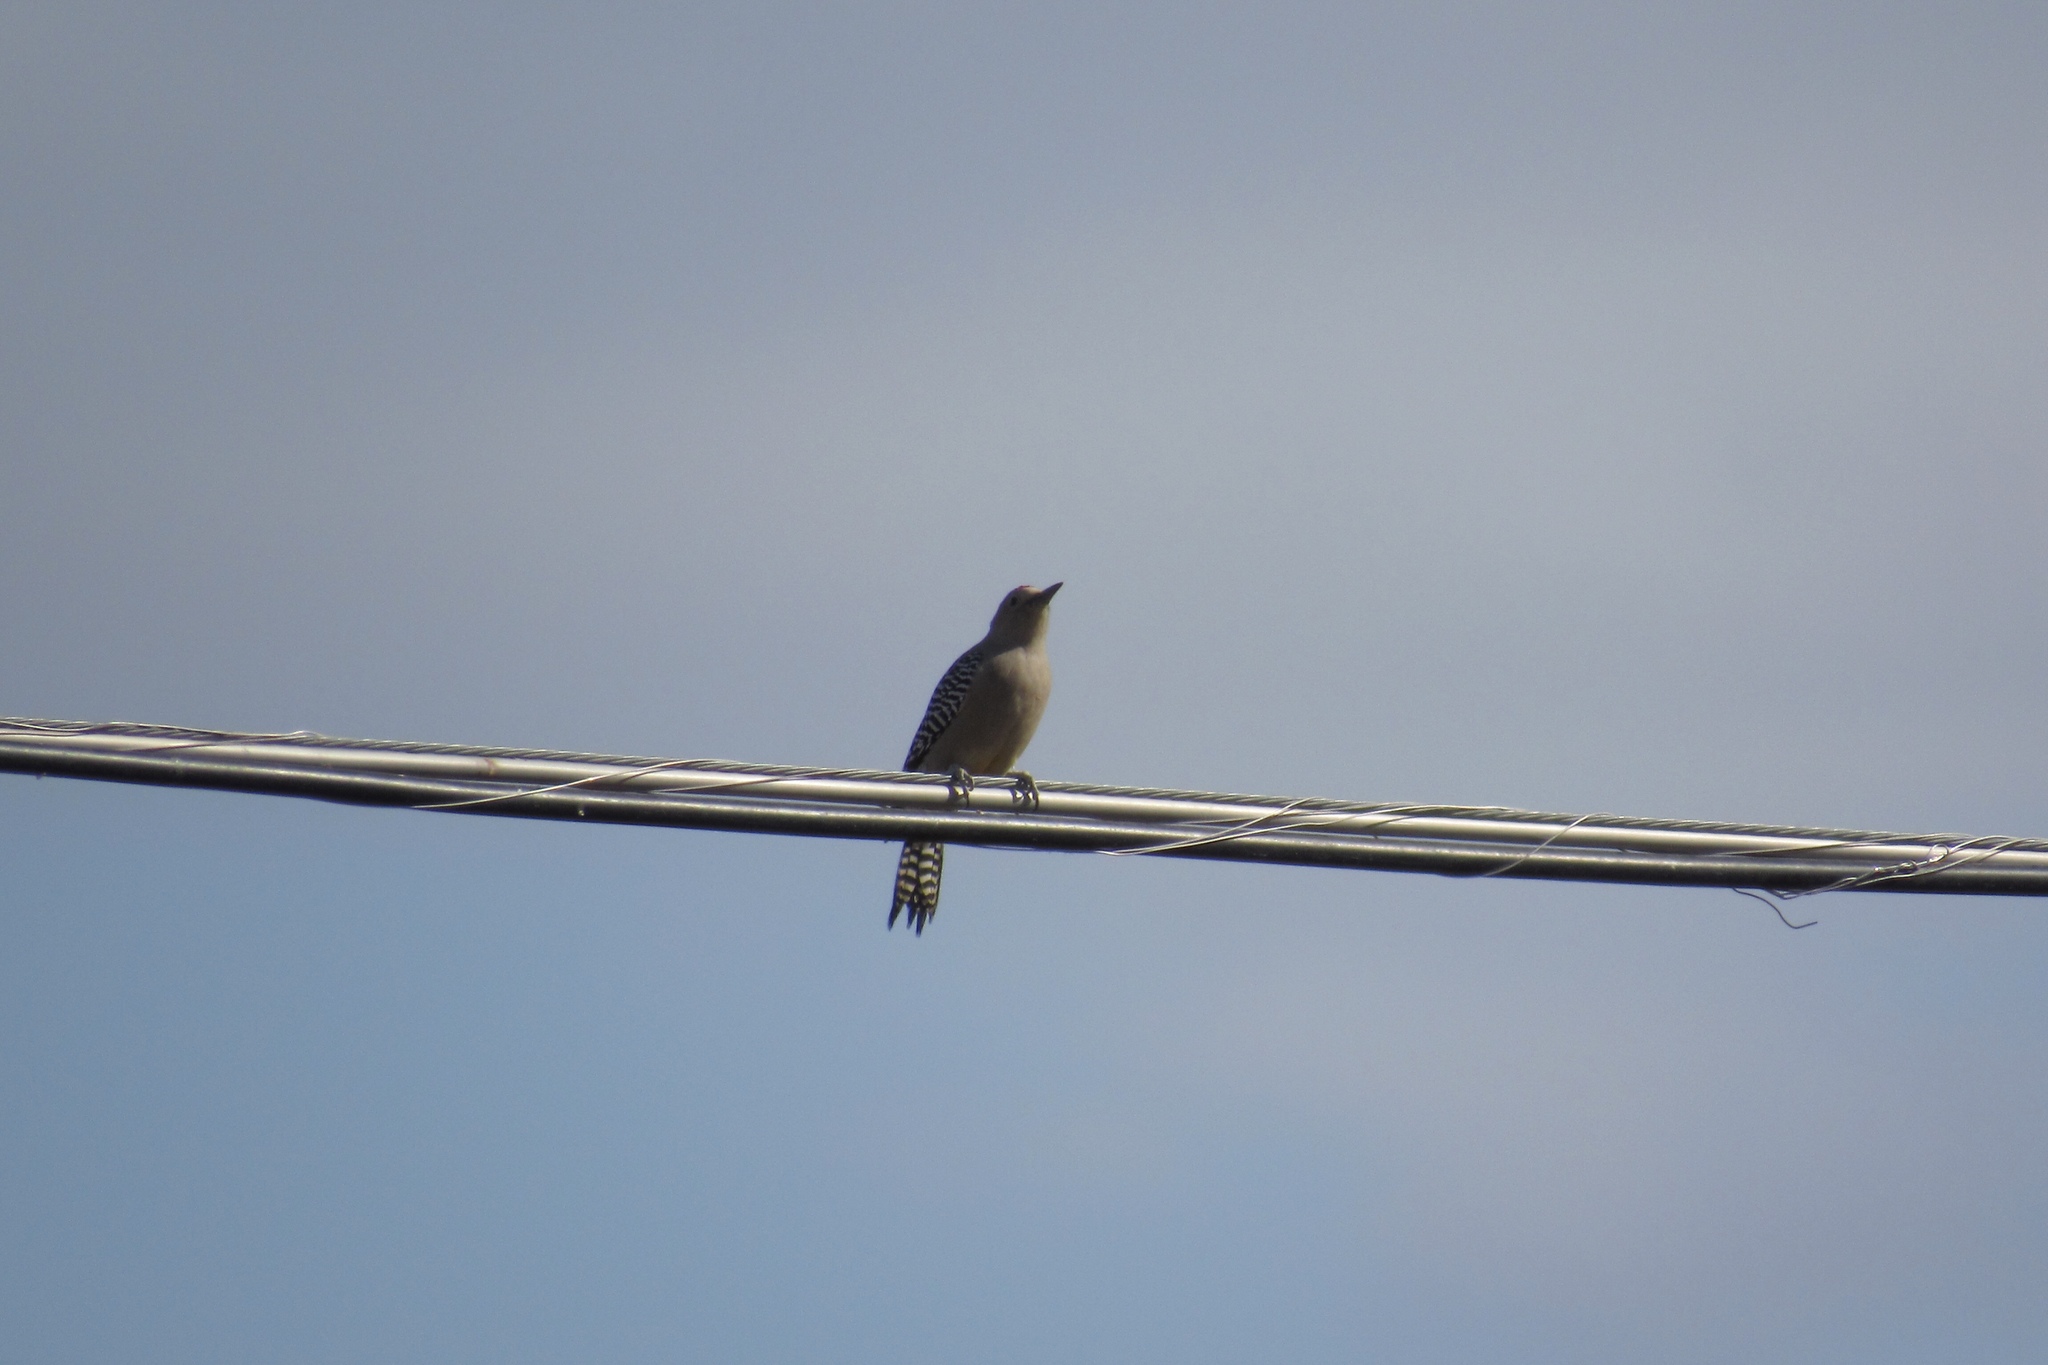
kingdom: Animalia
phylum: Chordata
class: Aves
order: Piciformes
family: Picidae
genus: Melanerpes
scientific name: Melanerpes uropygialis
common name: Gila woodpecker
